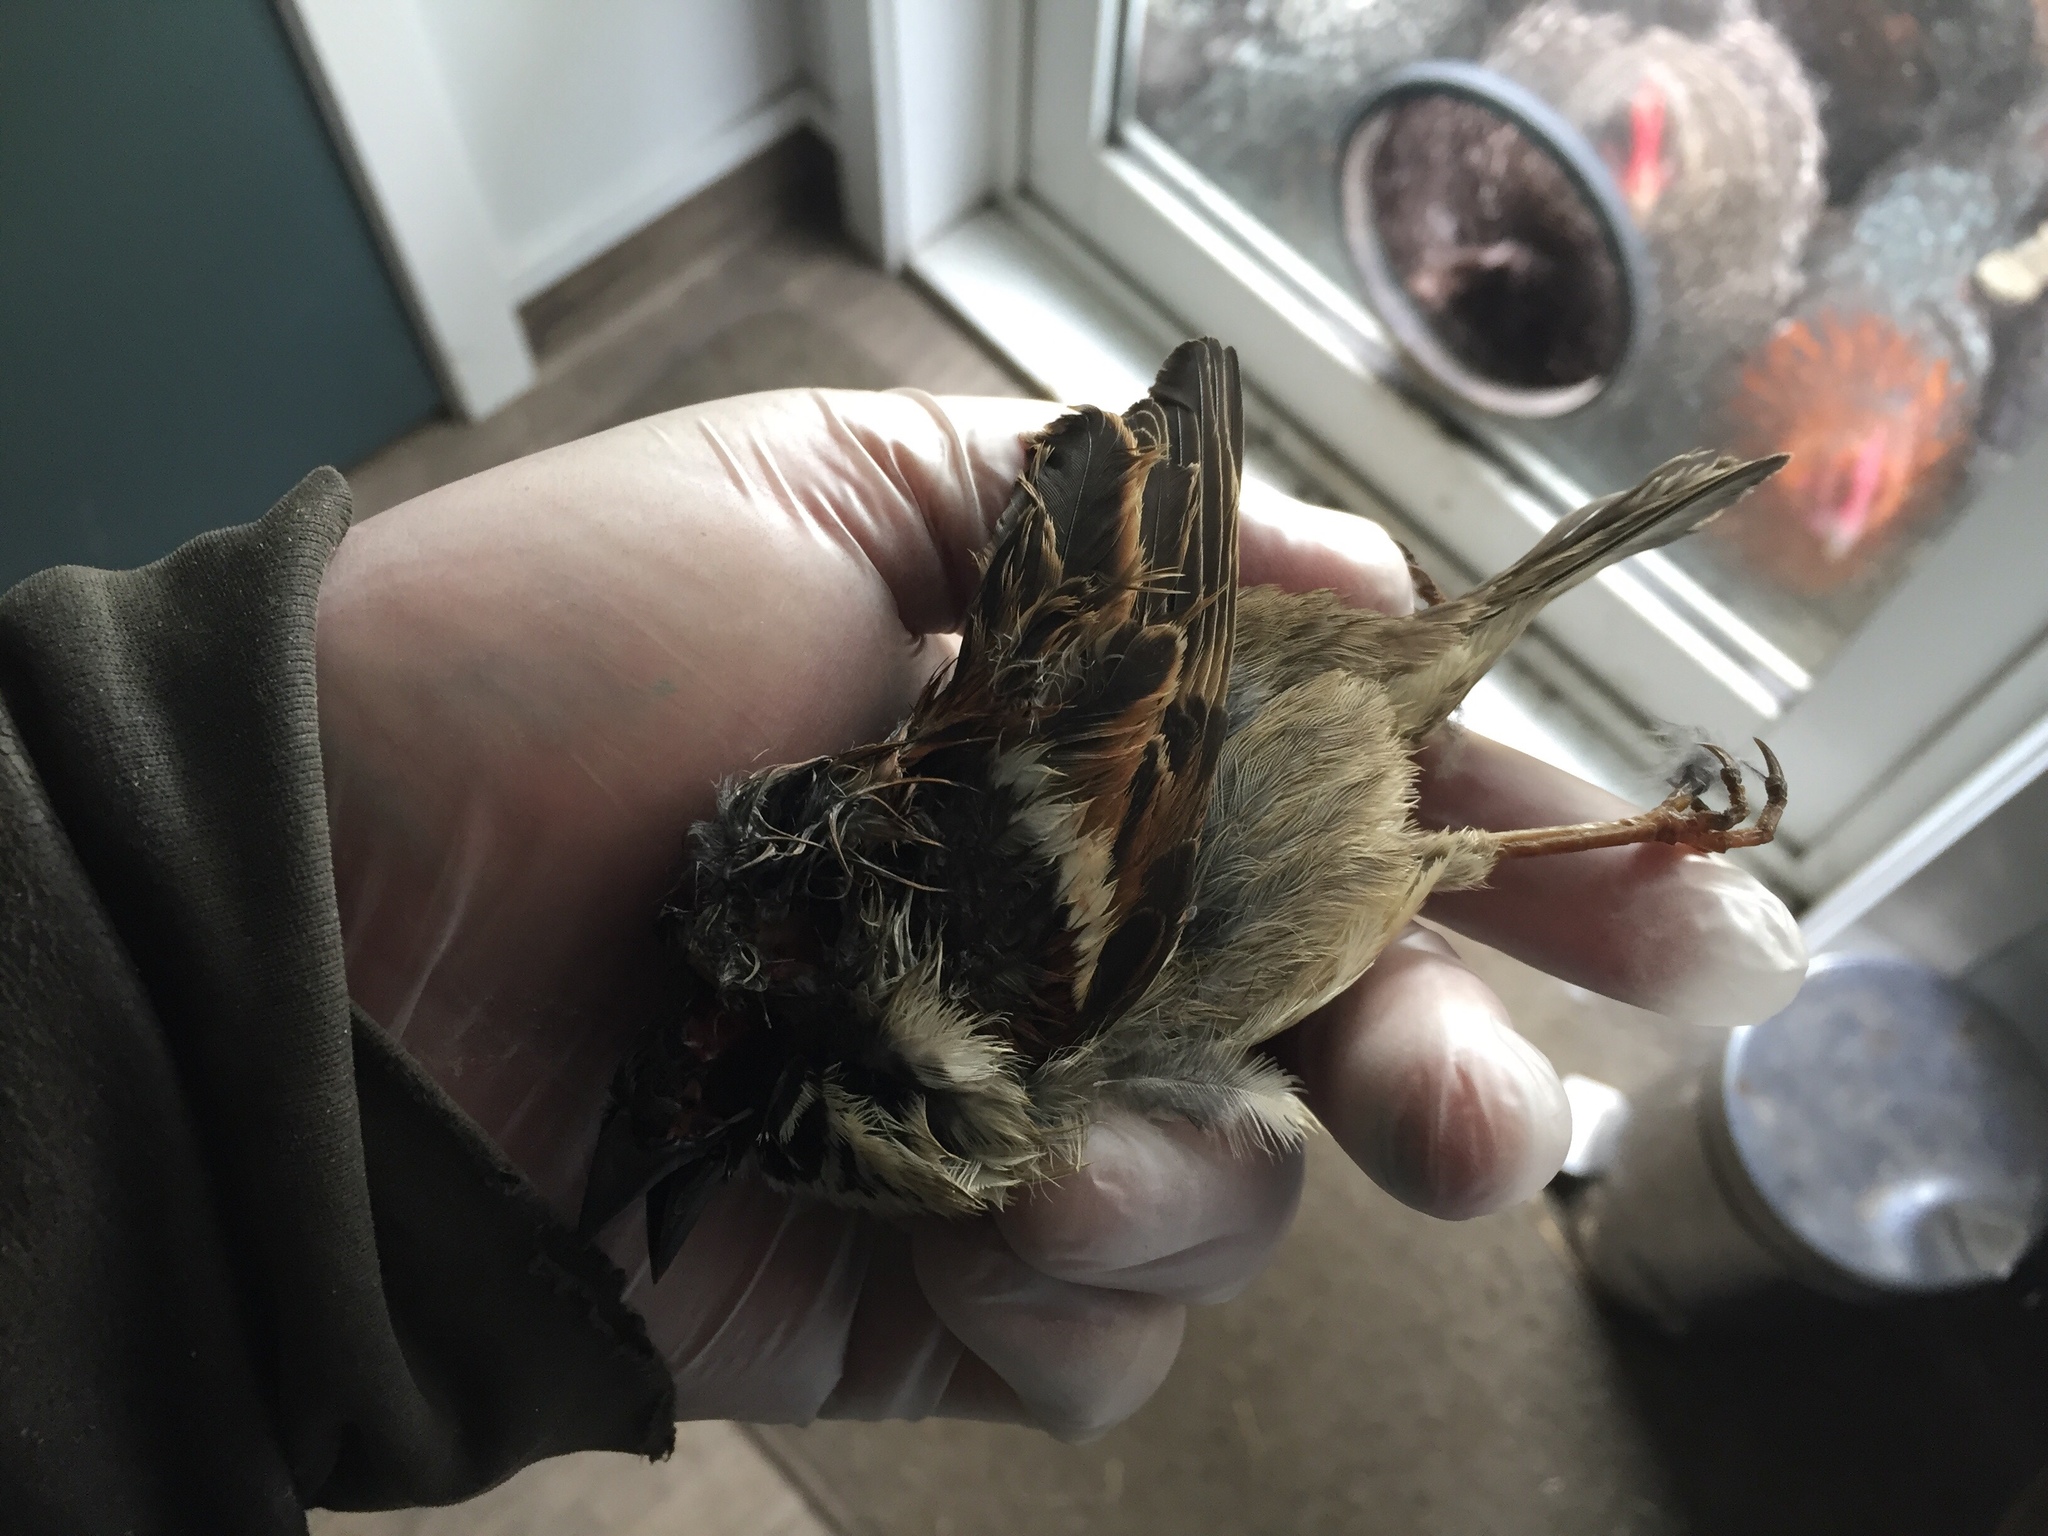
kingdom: Animalia
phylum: Chordata
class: Aves
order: Passeriformes
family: Passeridae
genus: Passer
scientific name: Passer domesticus
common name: House sparrow
